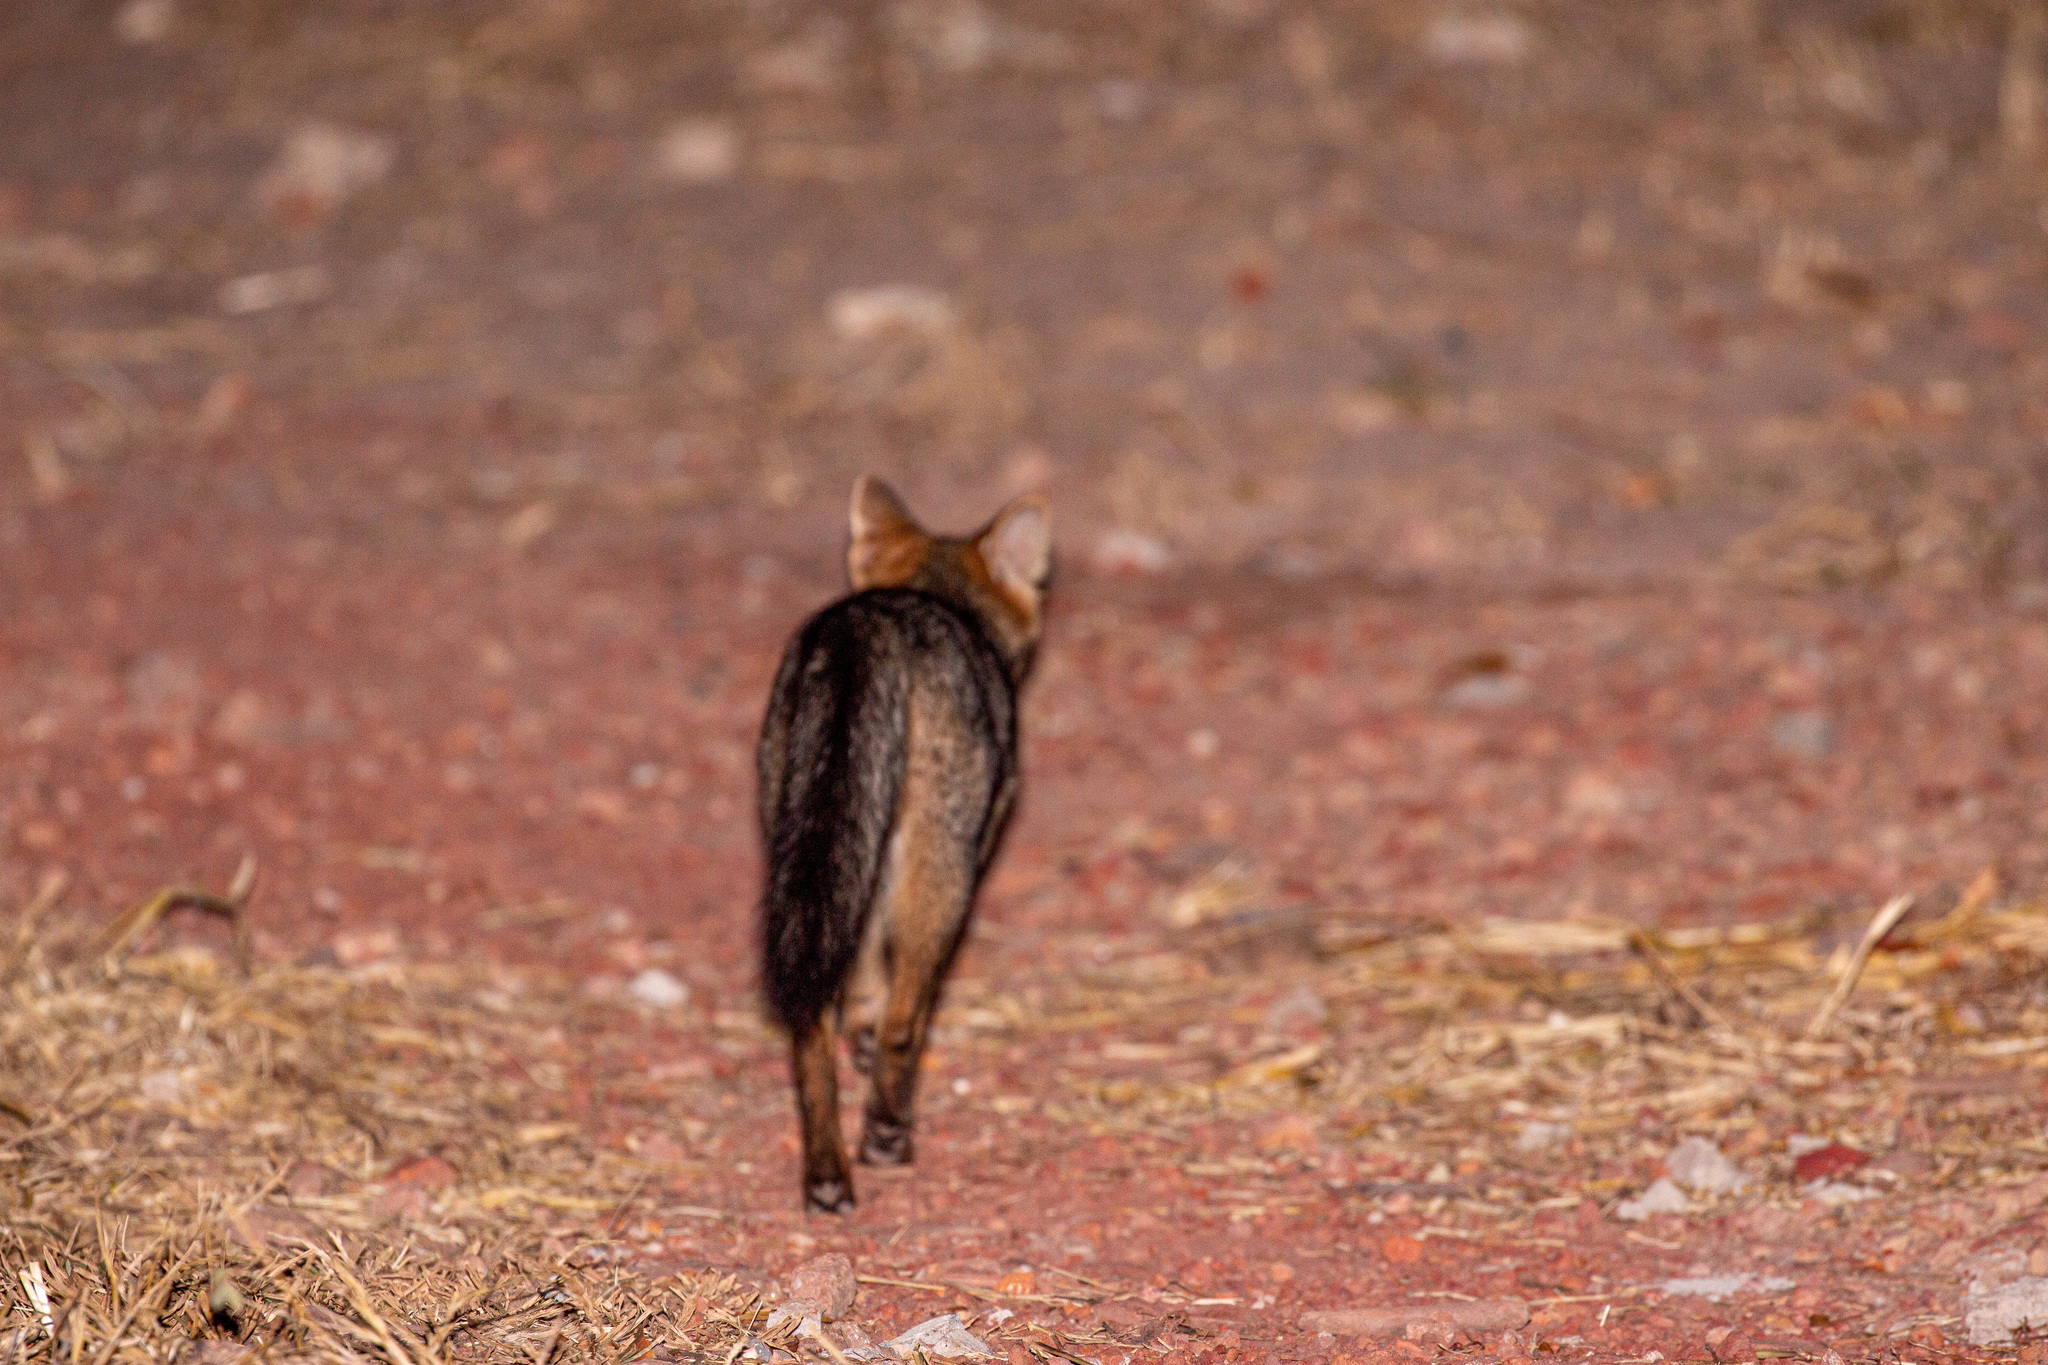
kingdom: Animalia
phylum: Chordata
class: Mammalia
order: Carnivora
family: Canidae
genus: Cerdocyon
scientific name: Cerdocyon thous
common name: Crab-eating fox
